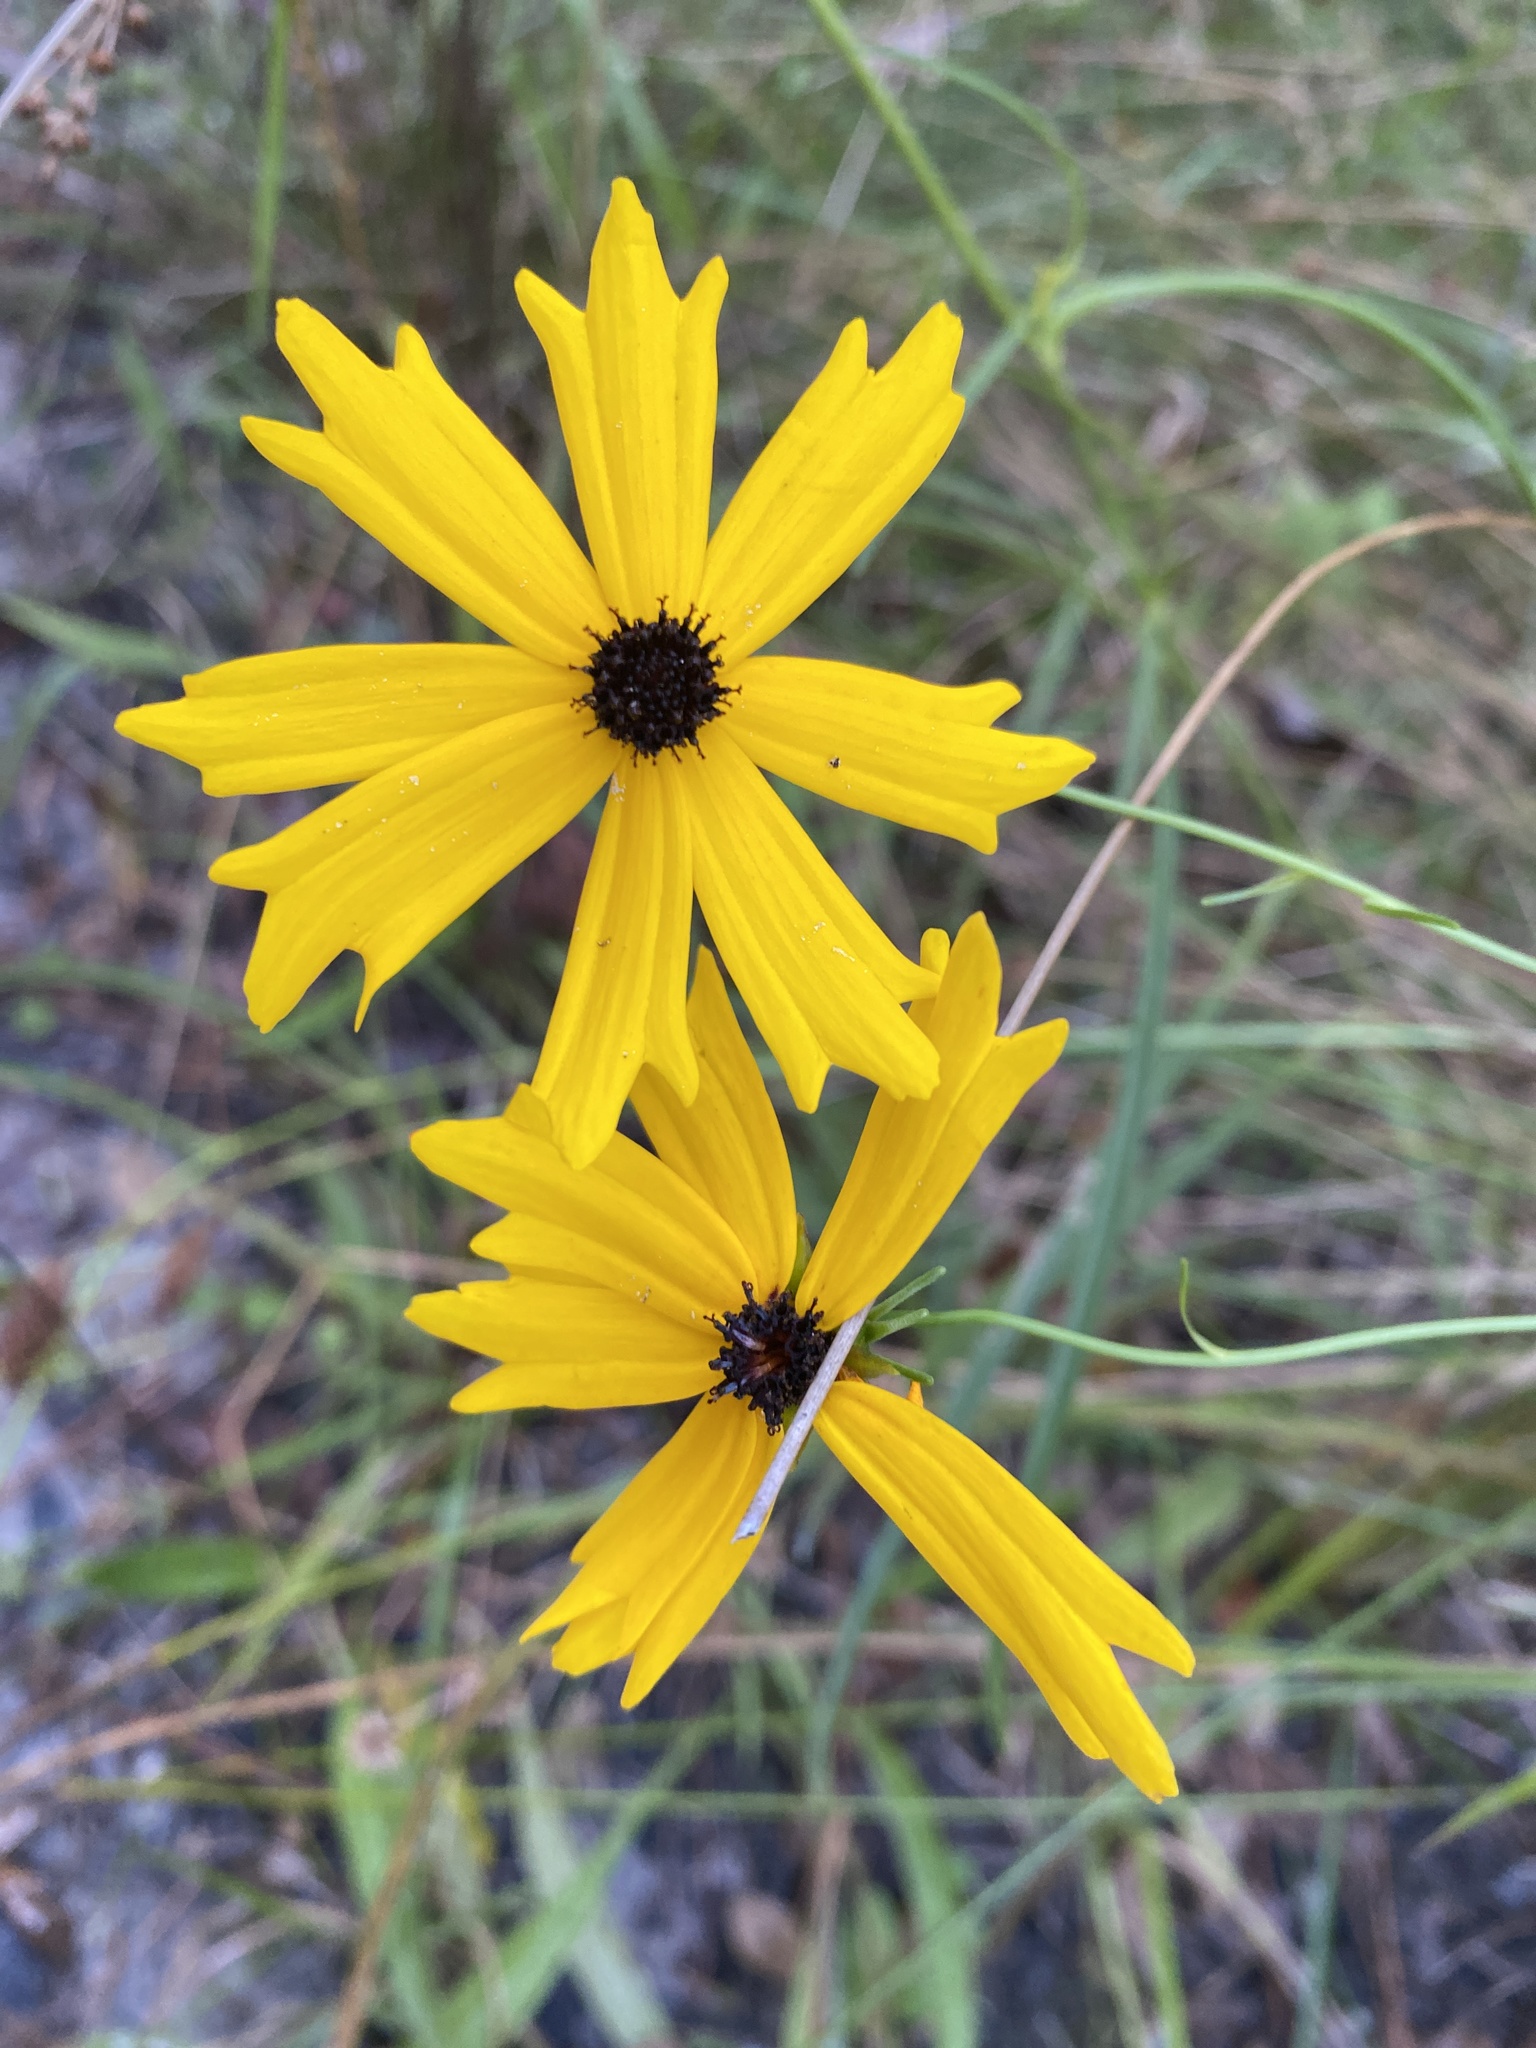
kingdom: Plantae
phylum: Tracheophyta
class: Magnoliopsida
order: Asterales
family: Asteraceae
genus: Coreopsis
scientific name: Coreopsis aristulata
